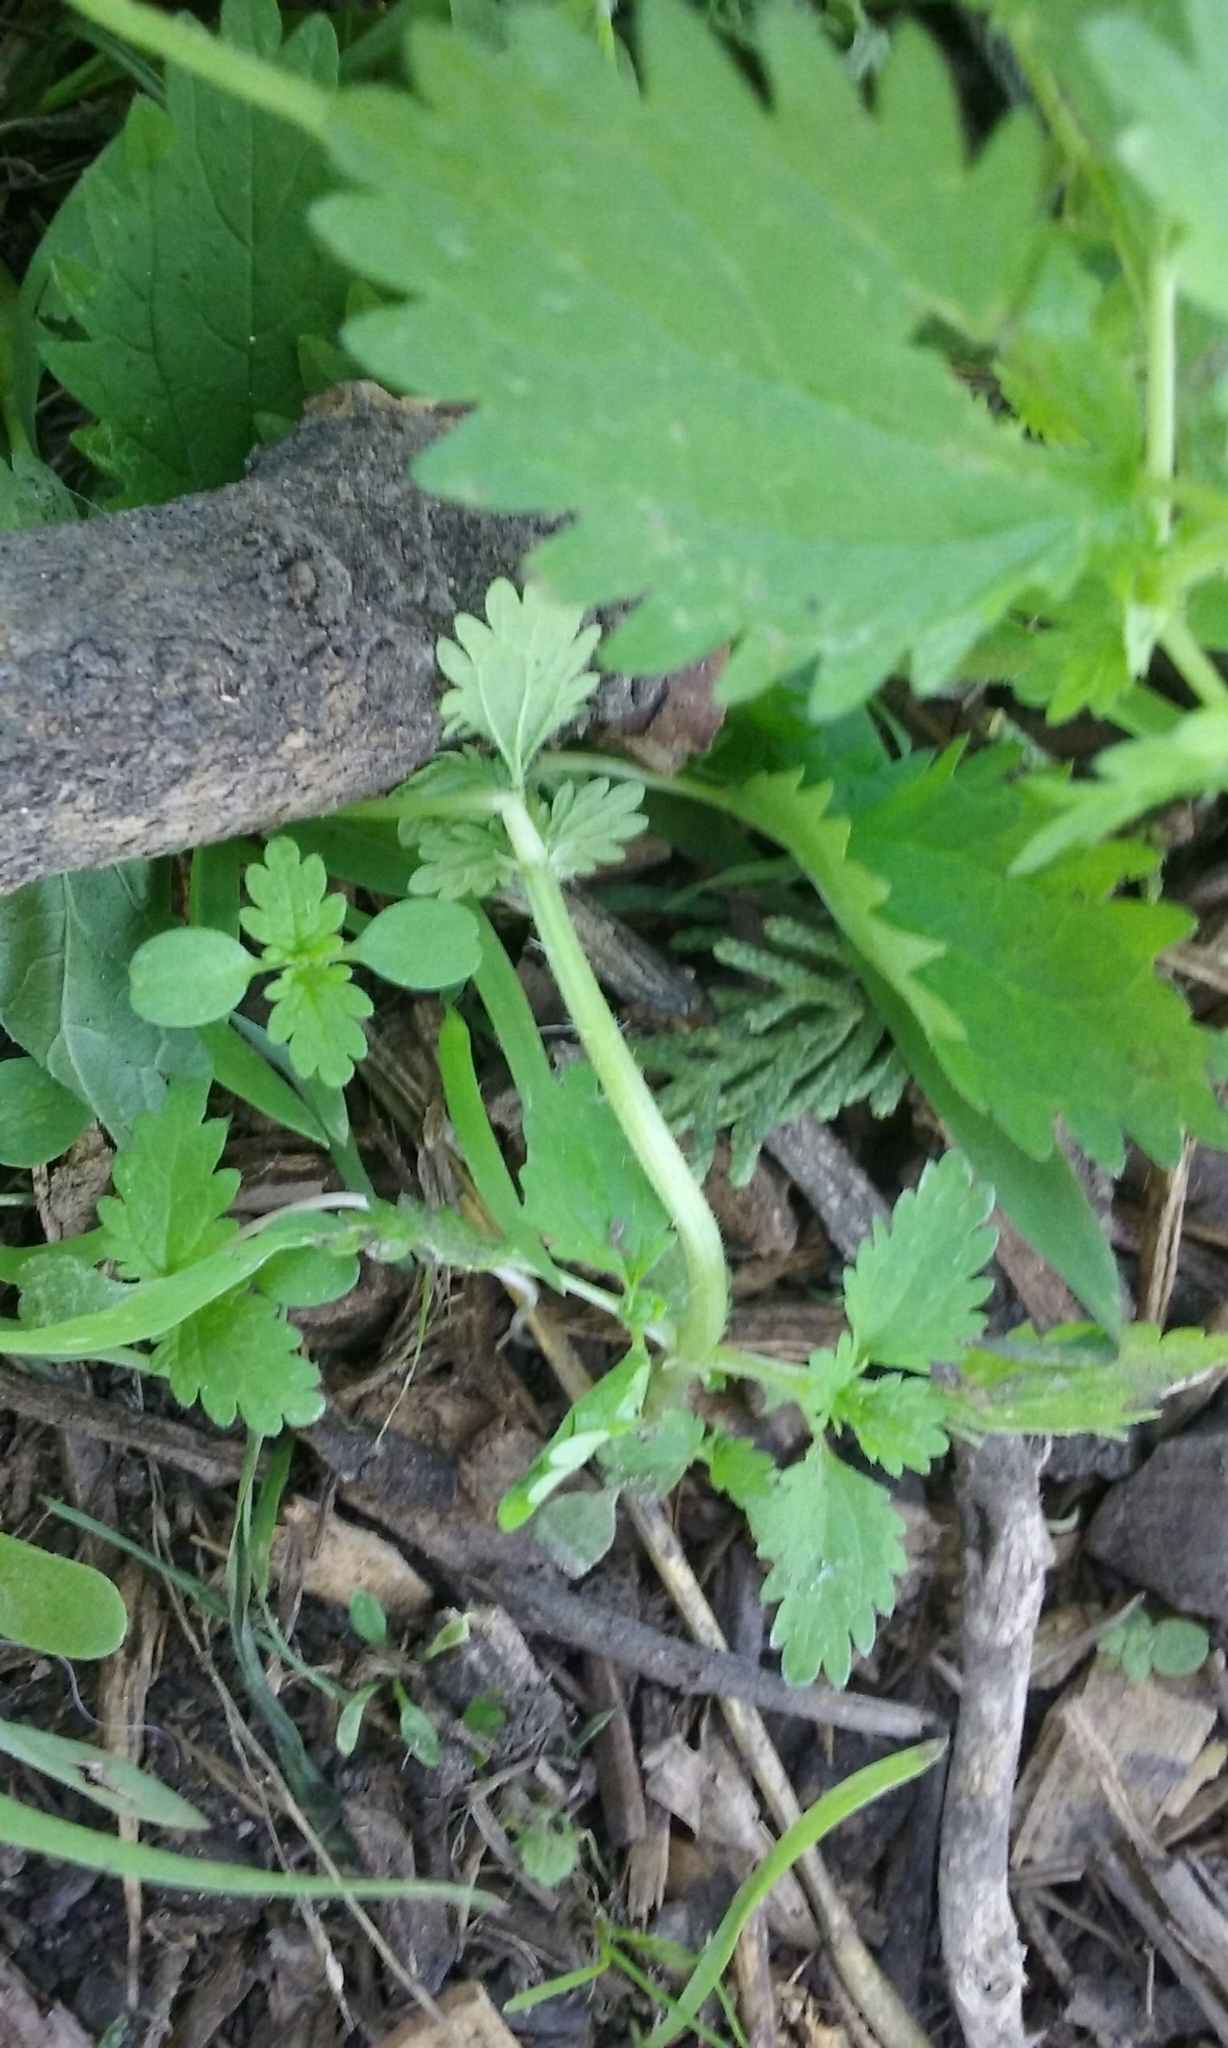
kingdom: Plantae
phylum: Tracheophyta
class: Magnoliopsida
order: Rosales
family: Urticaceae
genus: Urtica
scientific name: Urtica urens
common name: Dwarf nettle
